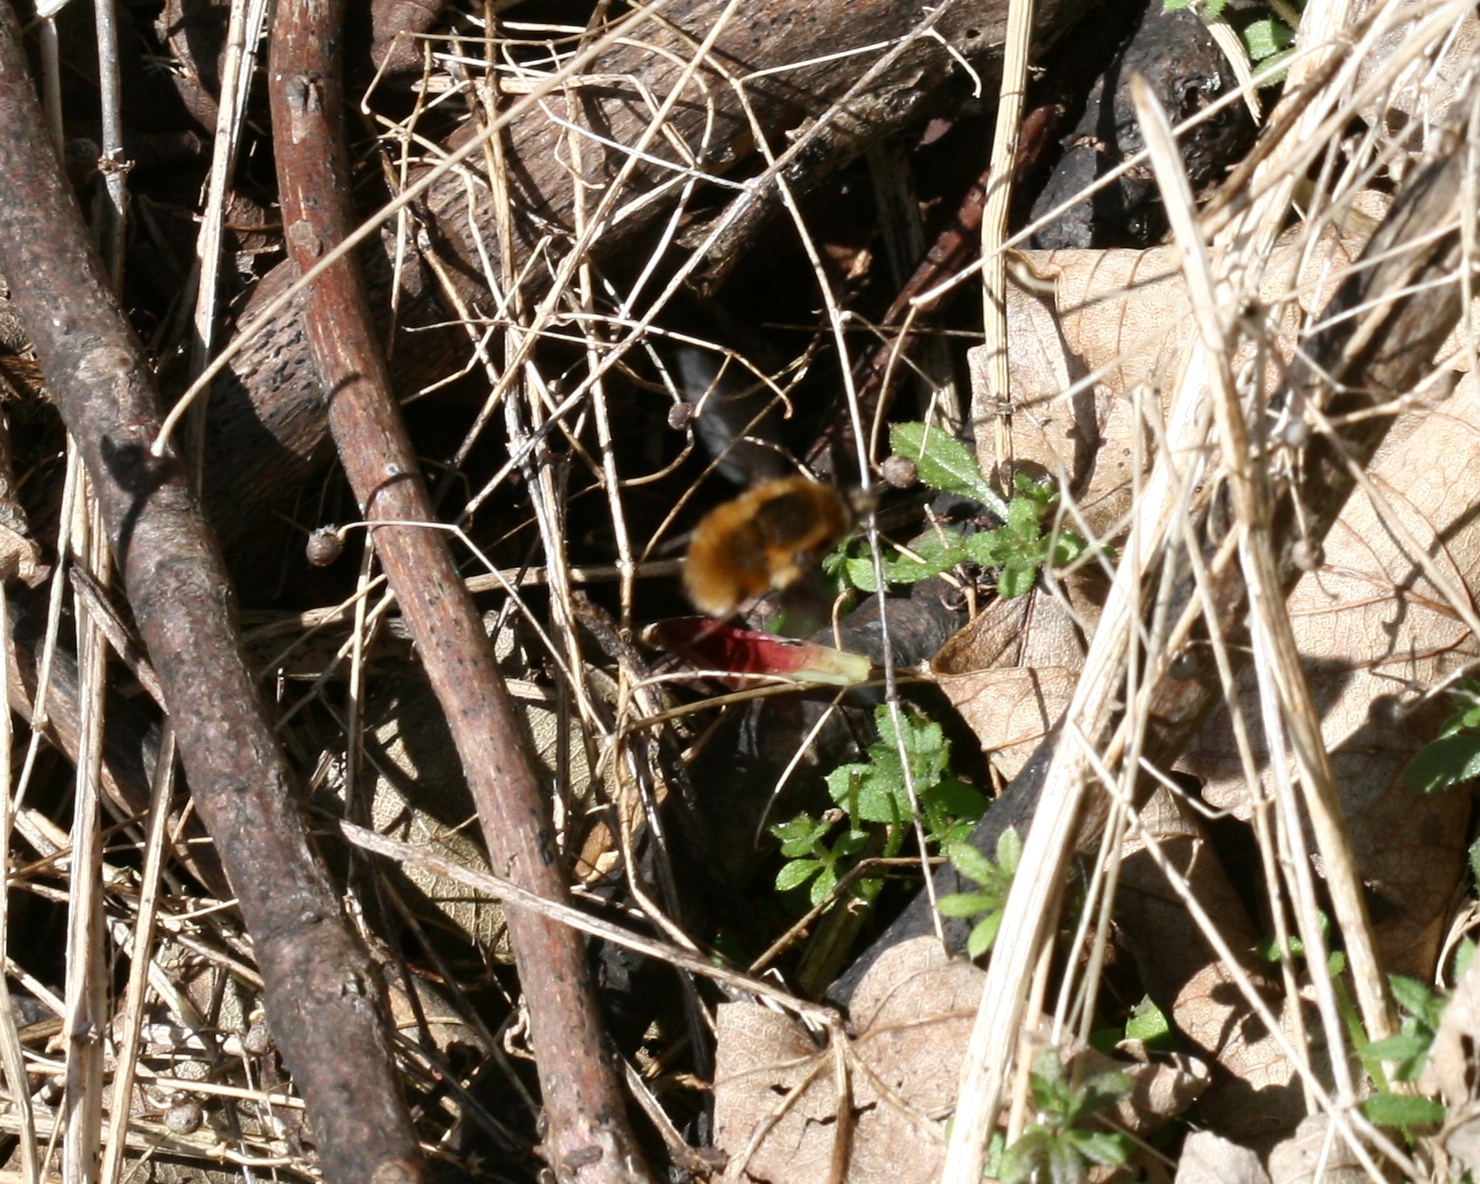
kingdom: Animalia
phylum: Arthropoda
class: Insecta
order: Diptera
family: Bombyliidae
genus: Bombylius
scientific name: Bombylius major
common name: Bee fly
